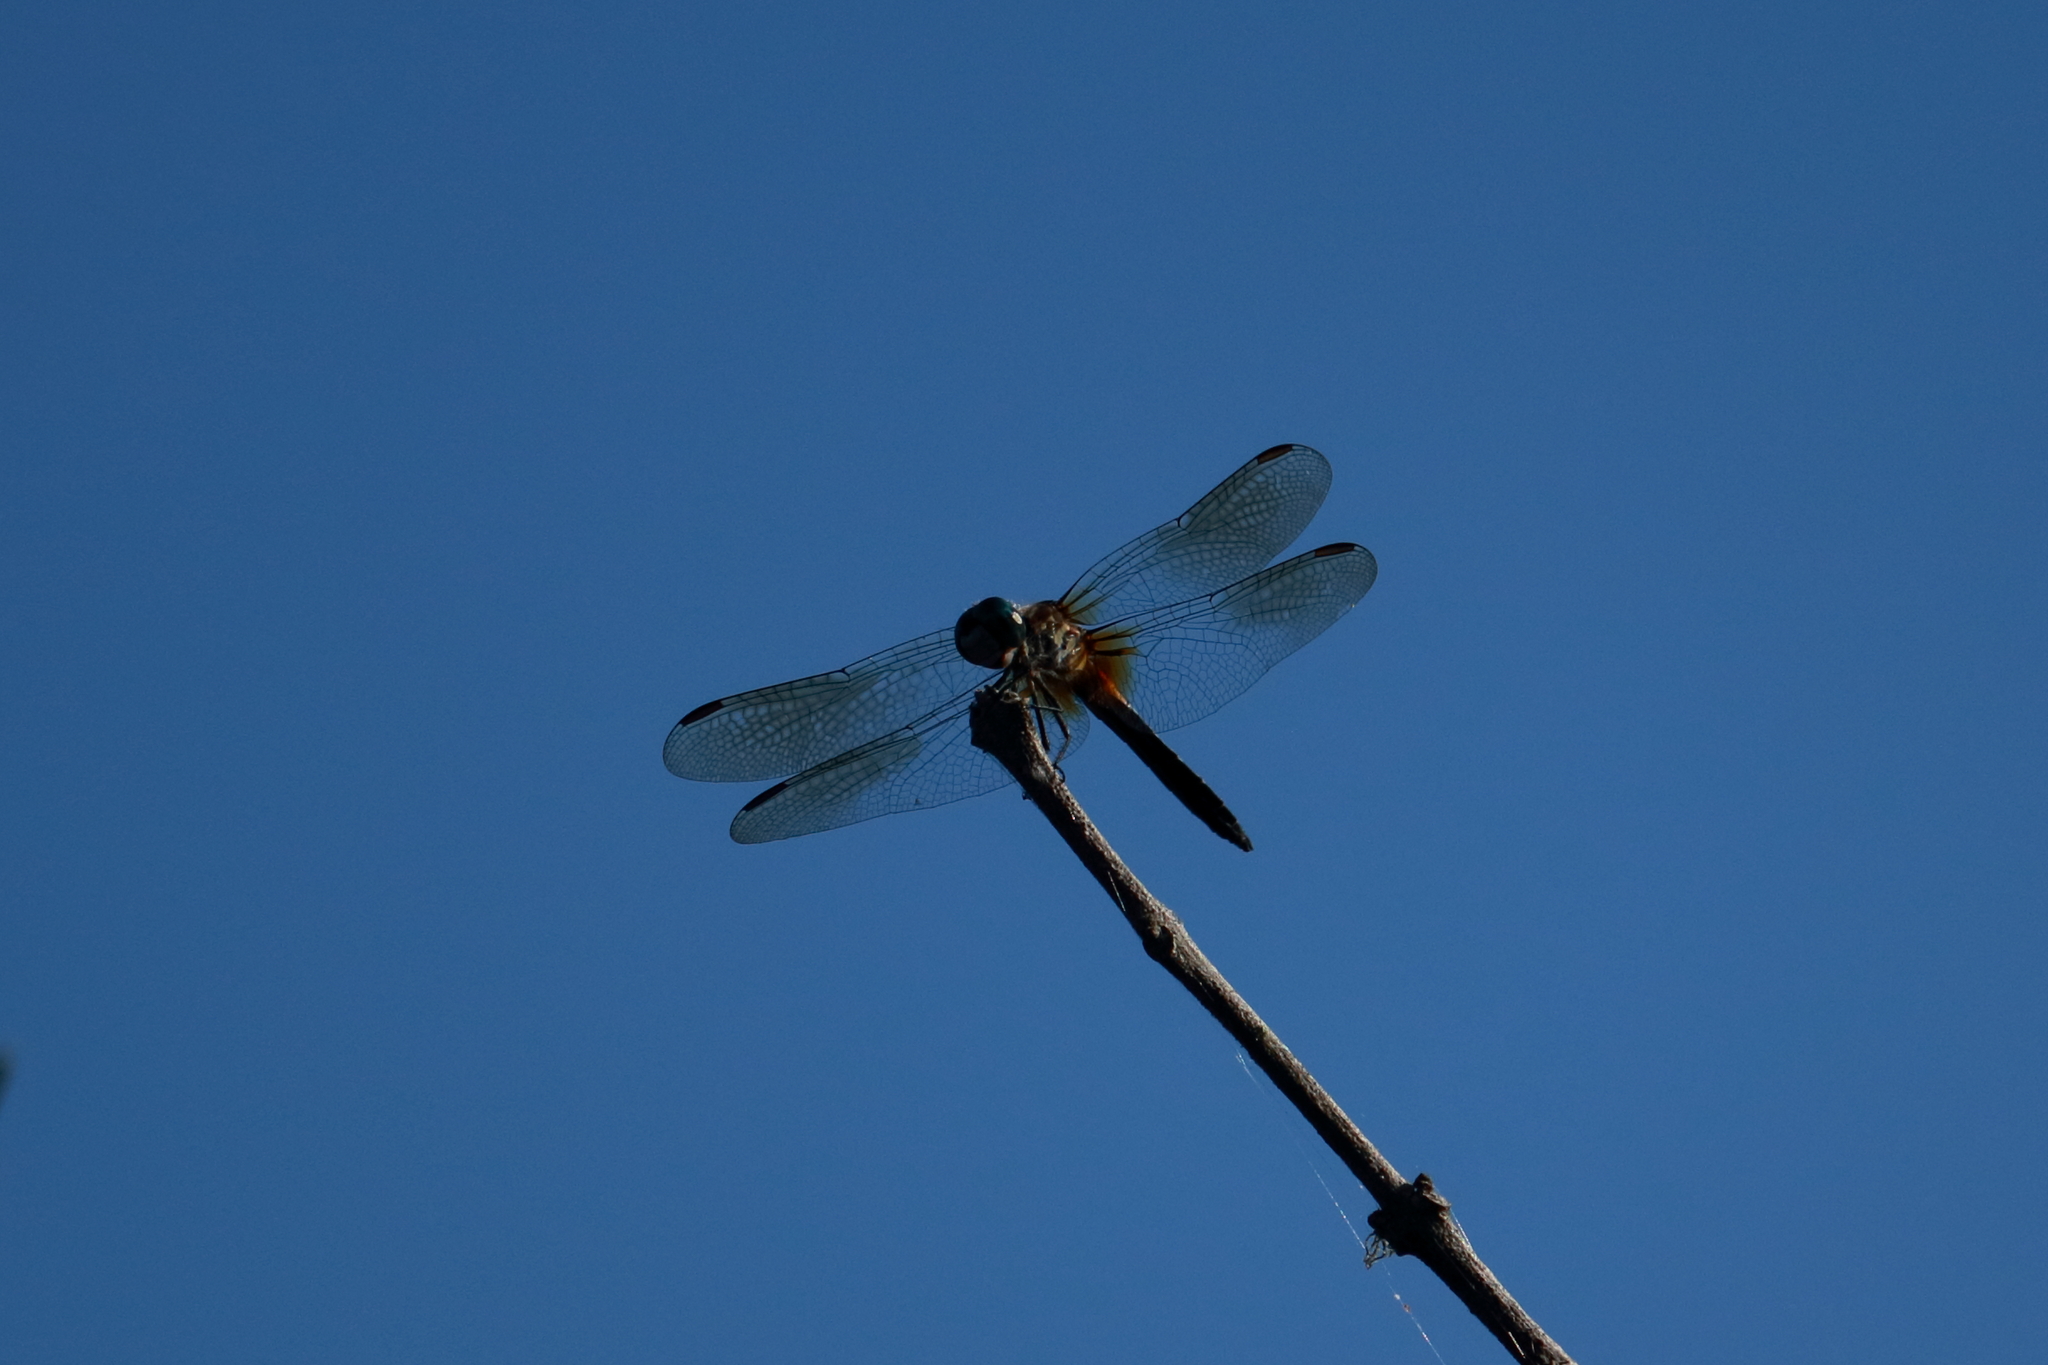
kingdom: Animalia
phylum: Arthropoda
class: Insecta
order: Odonata
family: Libellulidae
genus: Pachydiplax
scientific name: Pachydiplax longipennis
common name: Blue dasher
